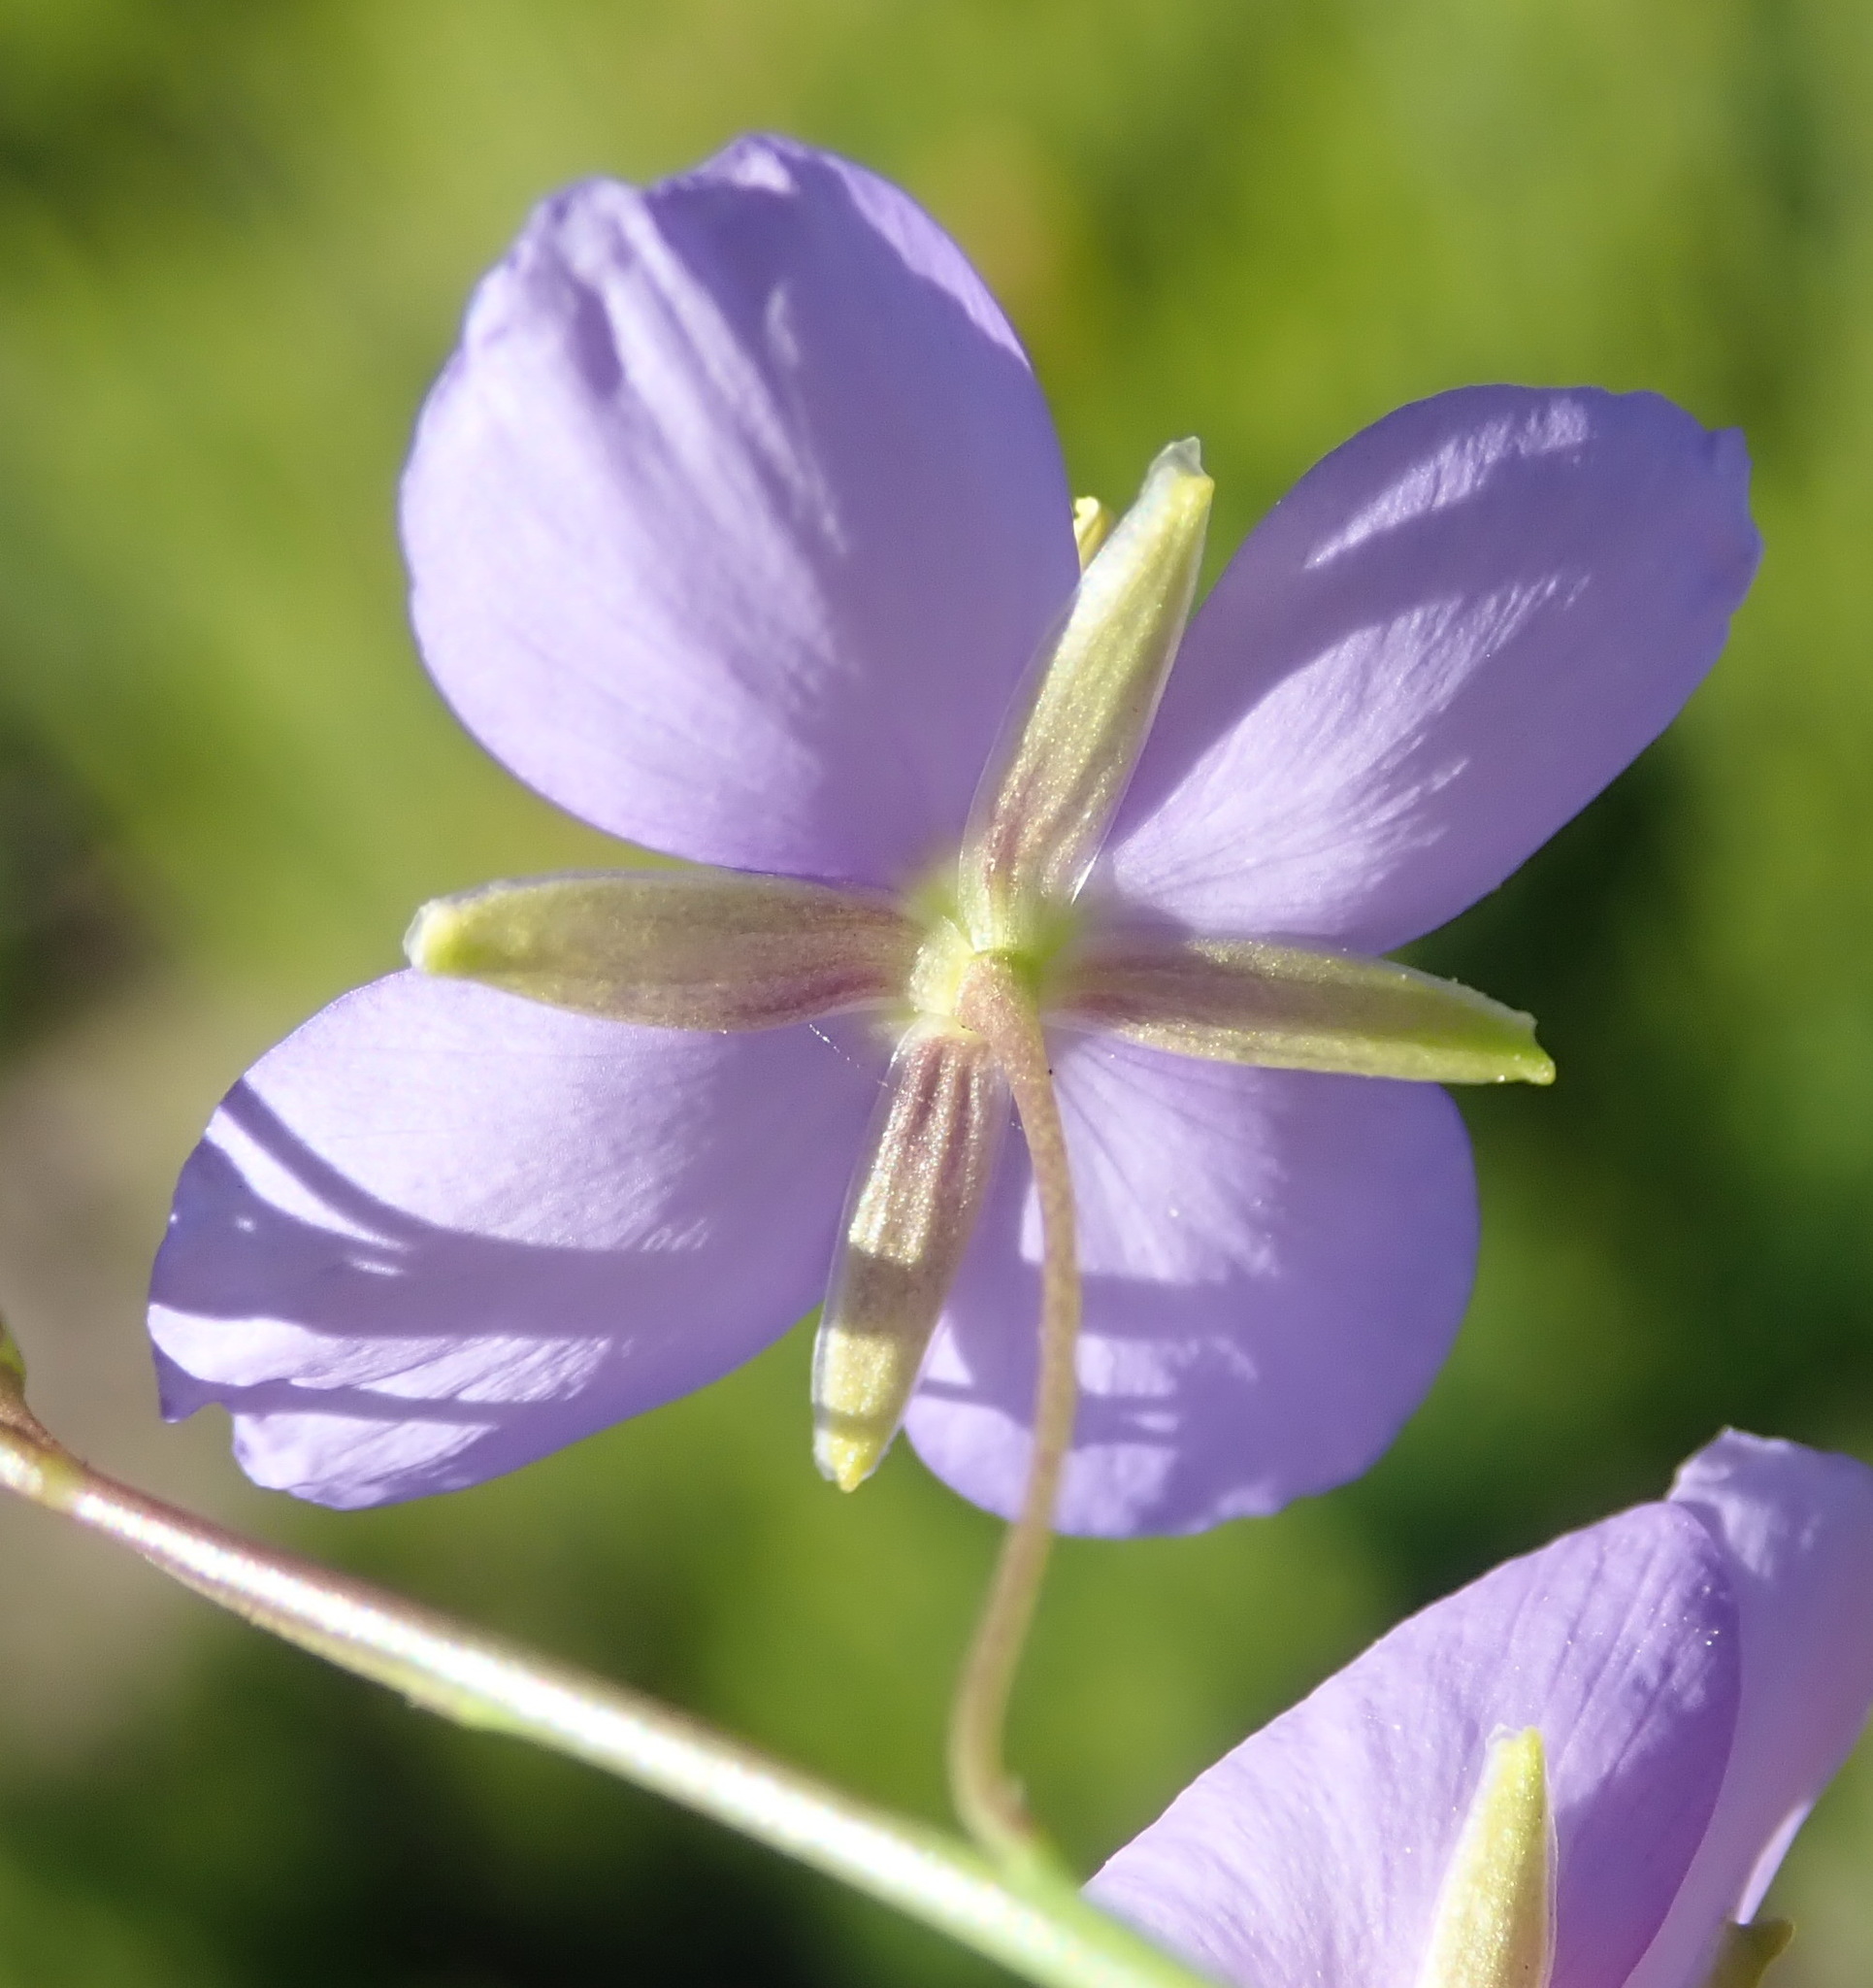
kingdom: Plantae
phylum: Tracheophyta
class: Magnoliopsida
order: Brassicales
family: Brassicaceae
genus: Heliophila
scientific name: Heliophila subulata
